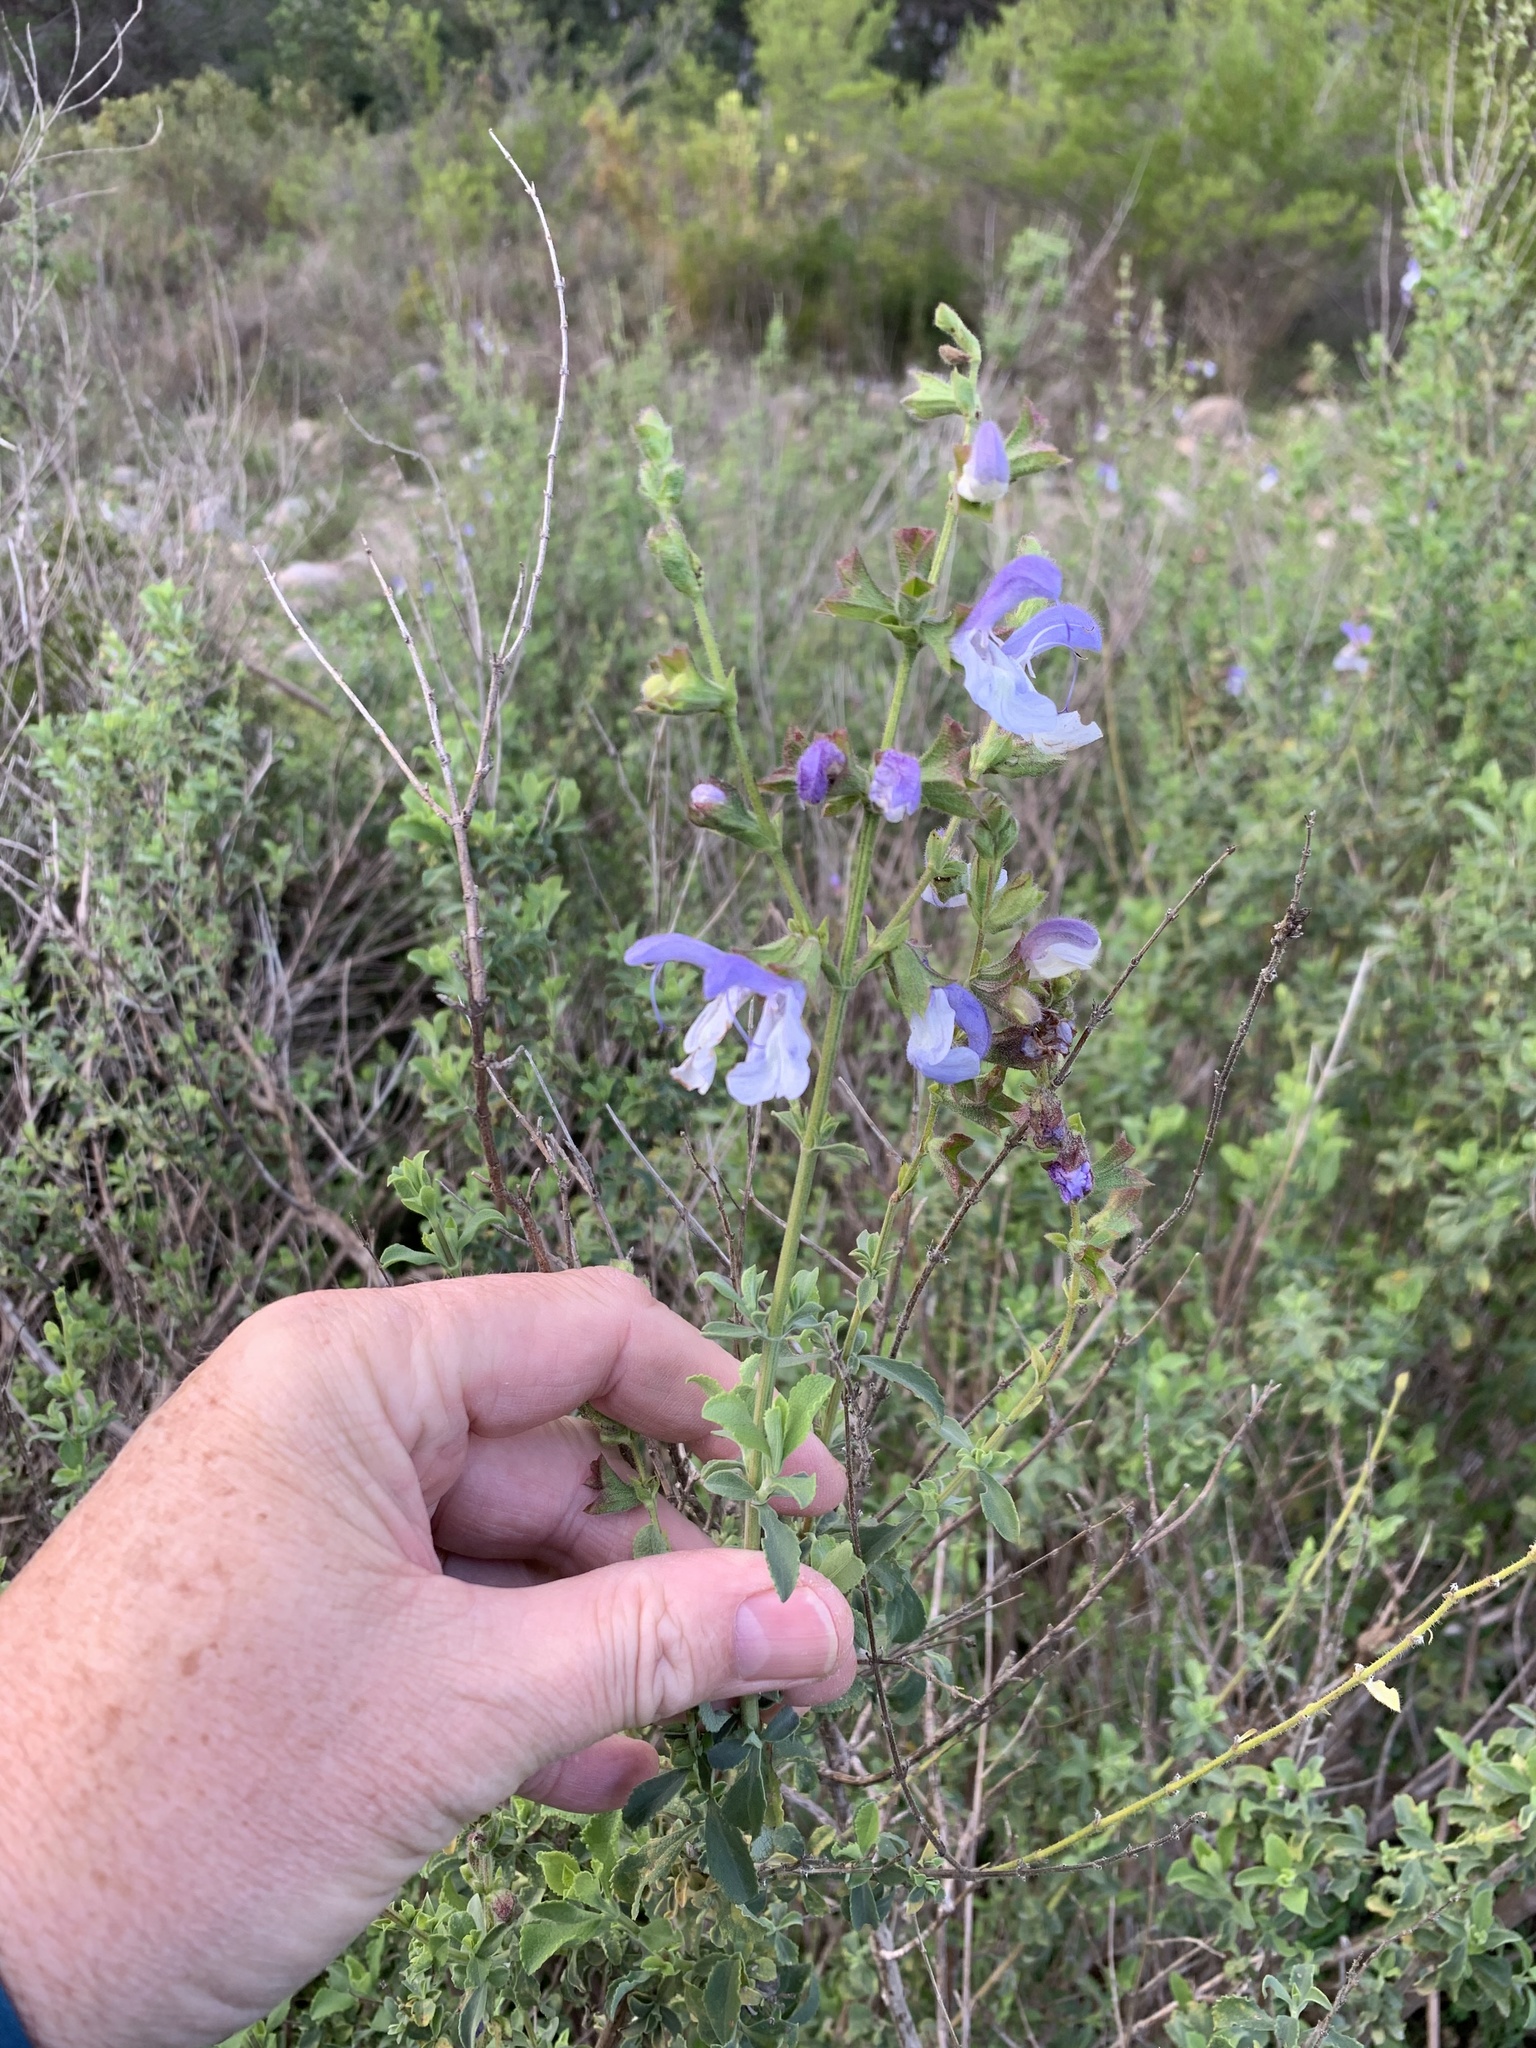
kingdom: Plantae
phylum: Tracheophyta
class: Magnoliopsida
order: Lamiales
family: Lamiaceae
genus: Salvia
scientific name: Salvia chamelaeagnea
